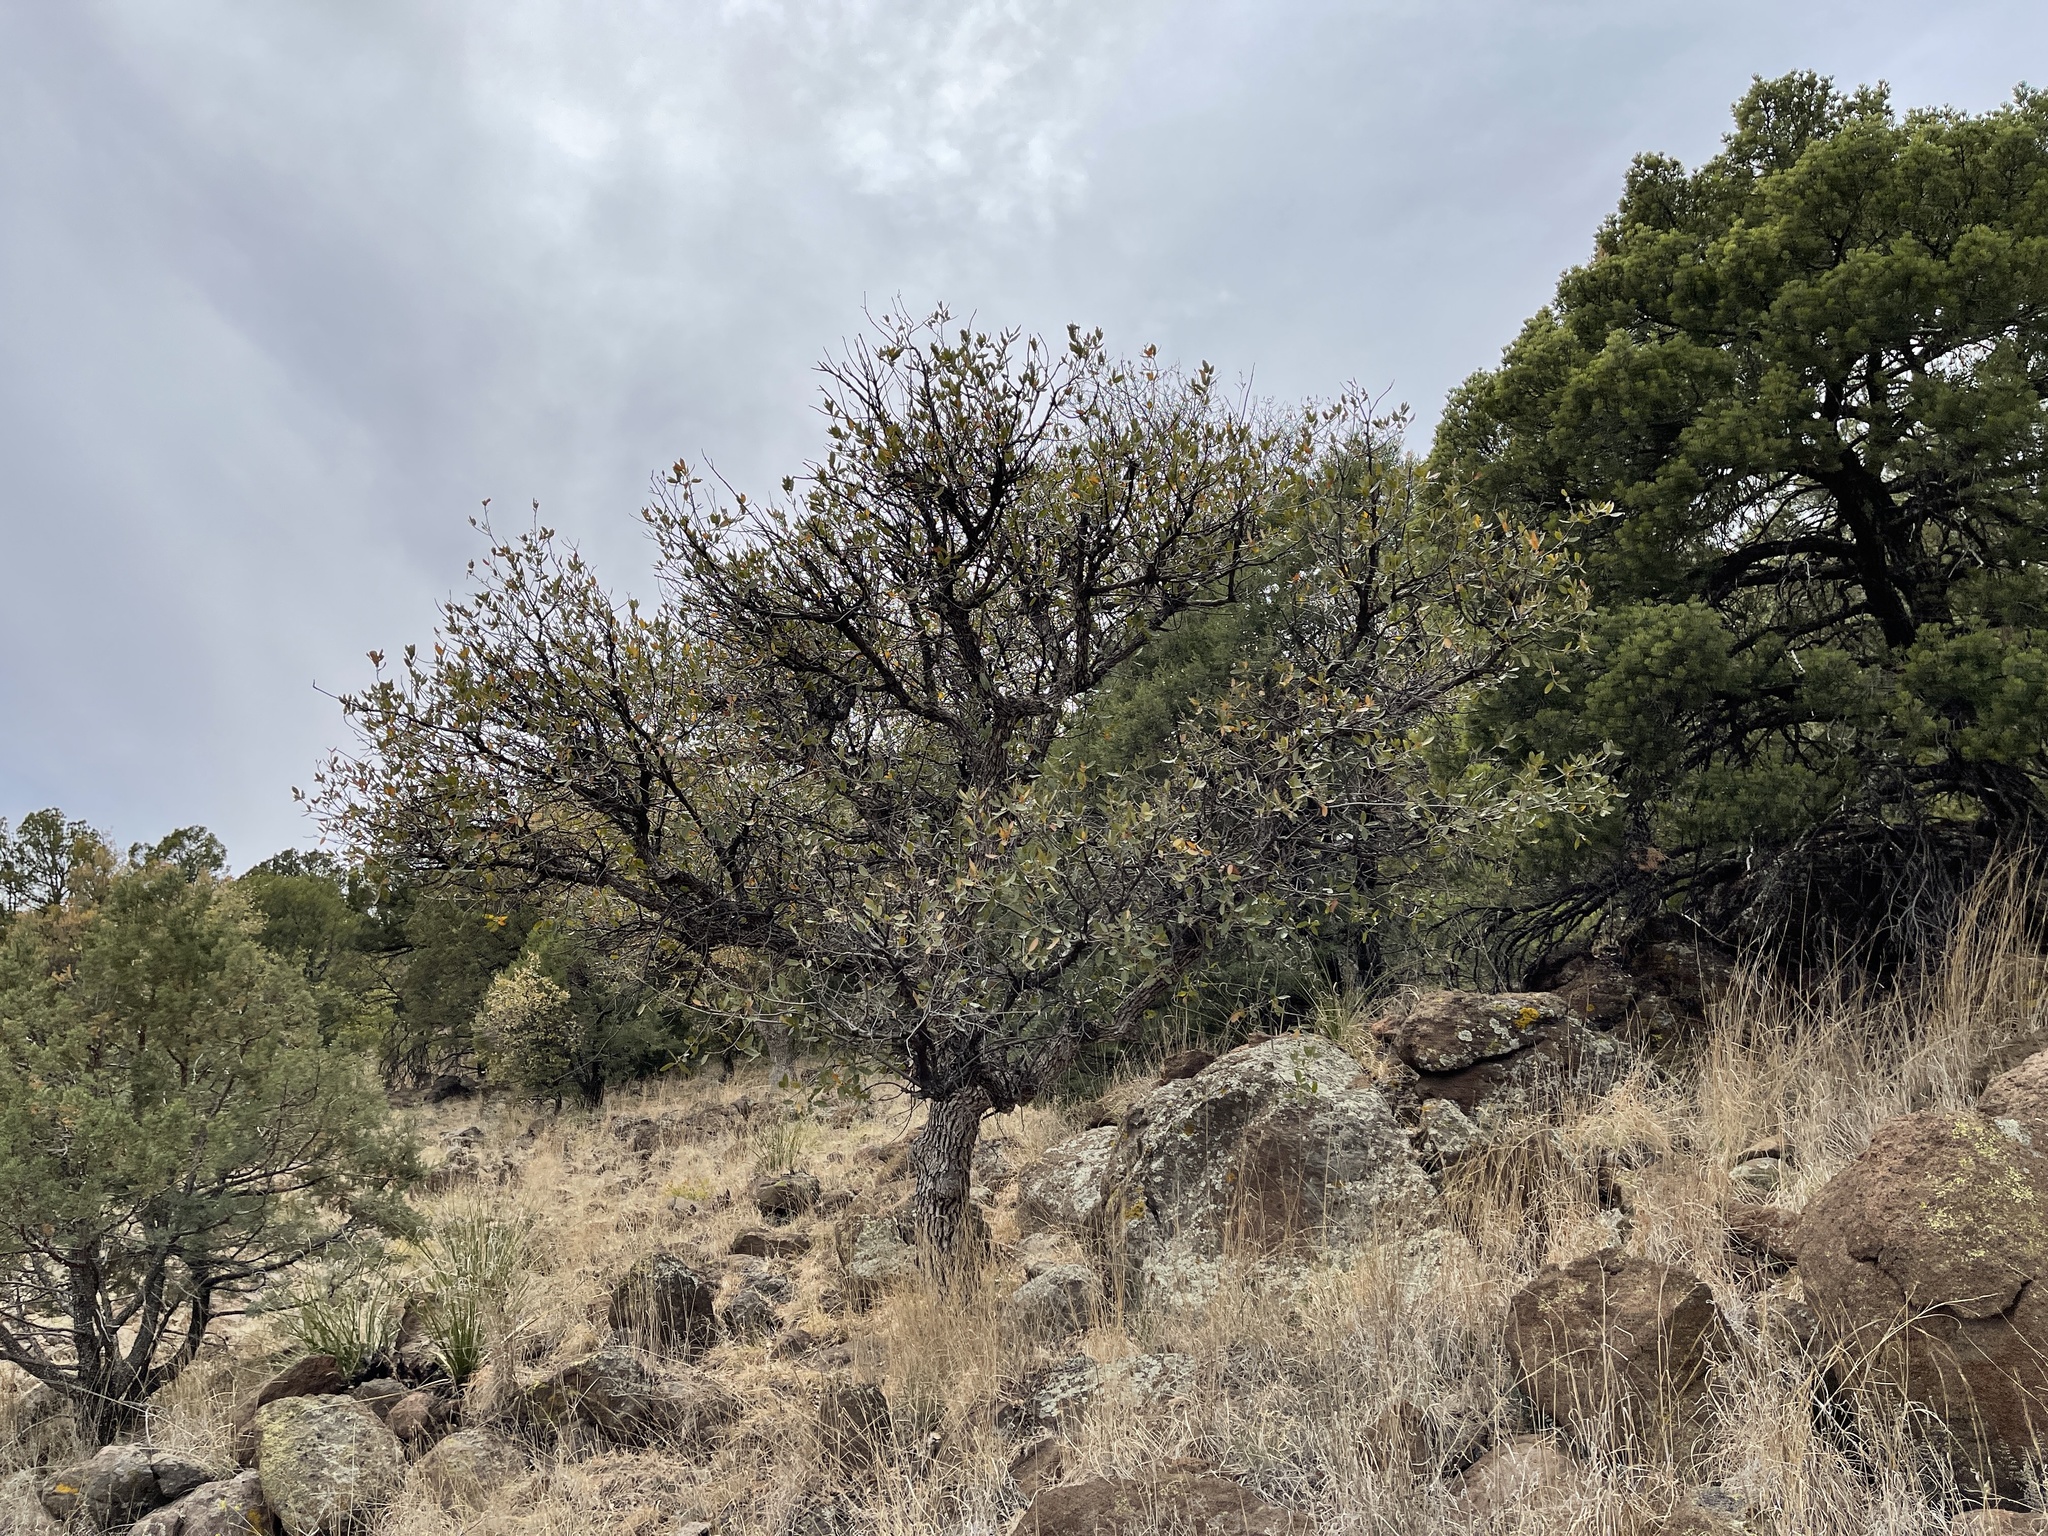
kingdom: Plantae
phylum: Tracheophyta
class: Magnoliopsida
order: Fagales
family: Fagaceae
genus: Quercus
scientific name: Quercus arizonica
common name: Arizona white oak
